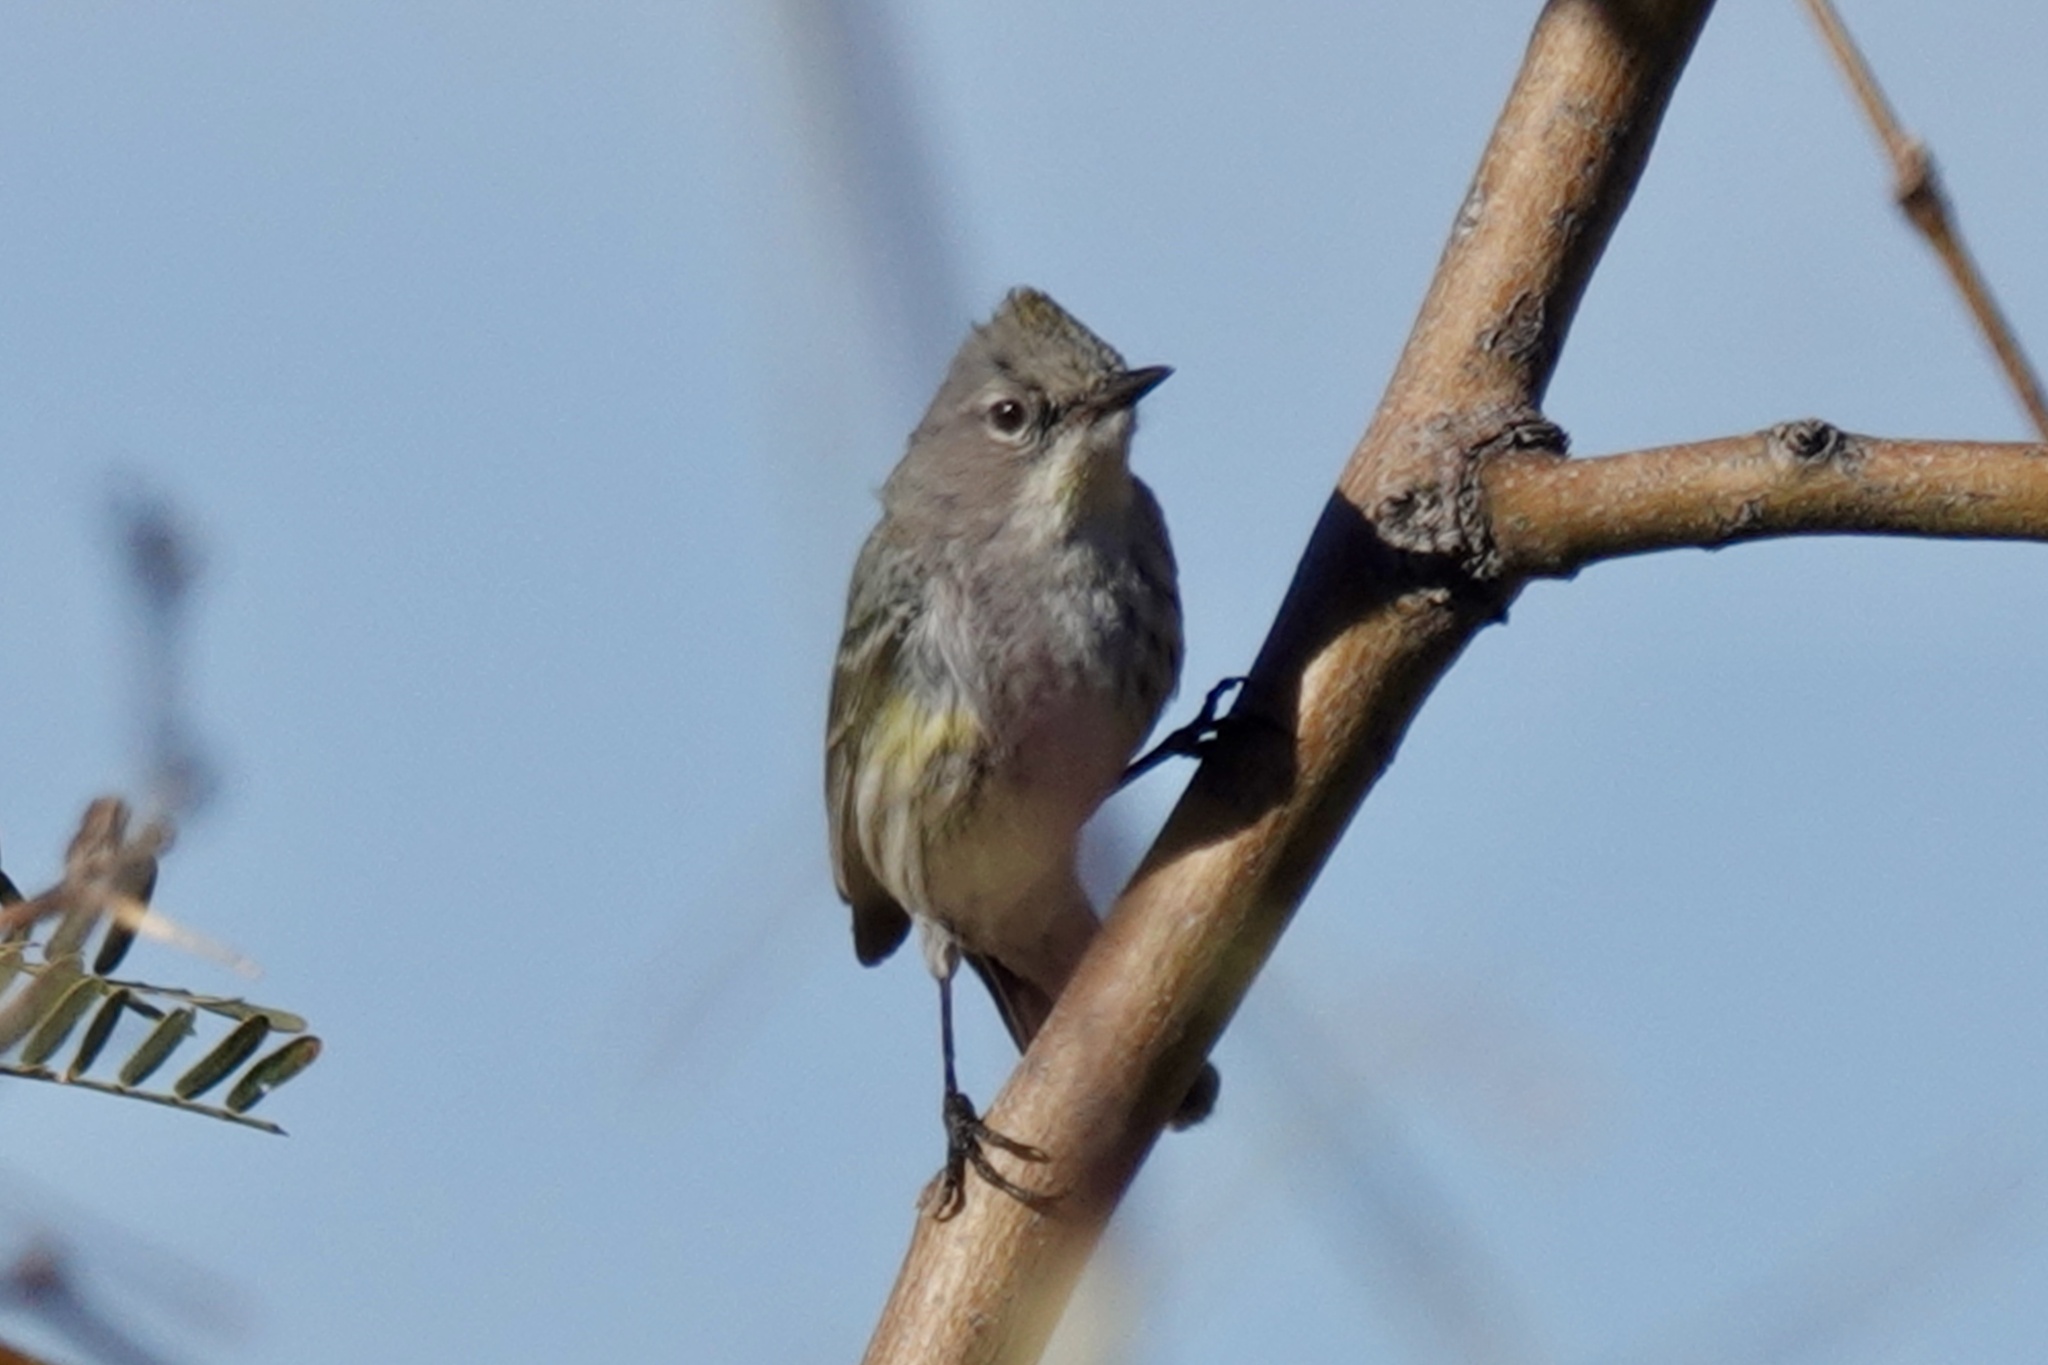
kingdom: Animalia
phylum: Chordata
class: Aves
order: Passeriformes
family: Parulidae
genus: Setophaga
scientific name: Setophaga coronata
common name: Myrtle warbler
